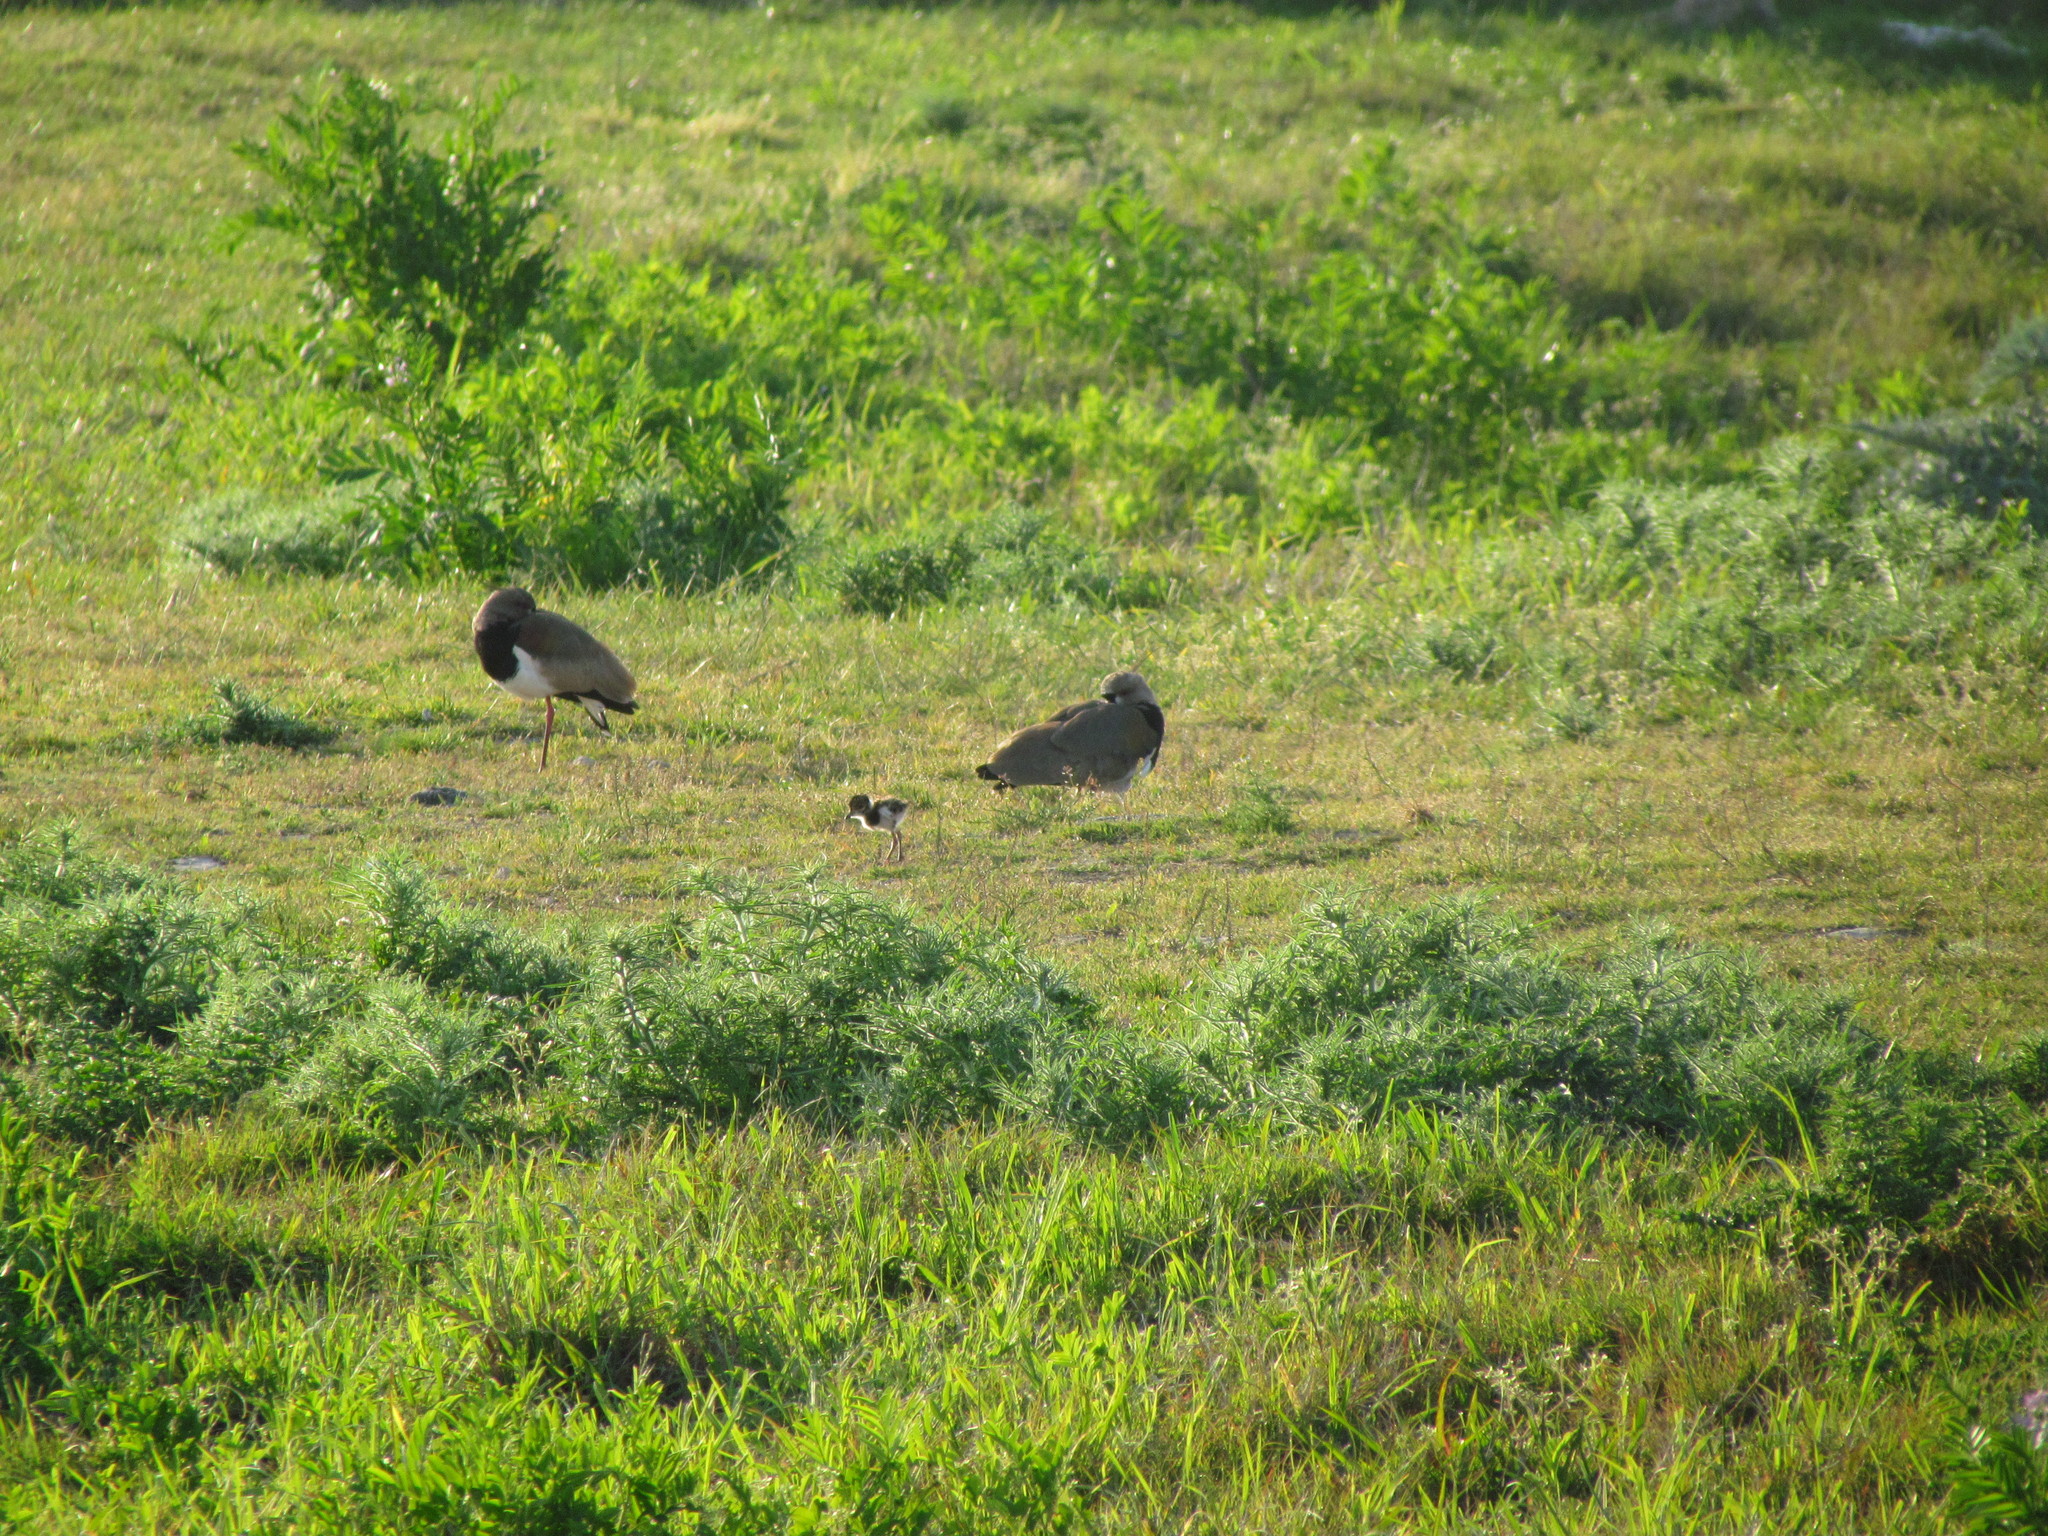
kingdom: Animalia
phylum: Chordata
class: Aves
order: Charadriiformes
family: Charadriidae
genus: Vanellus
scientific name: Vanellus chilensis
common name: Southern lapwing
